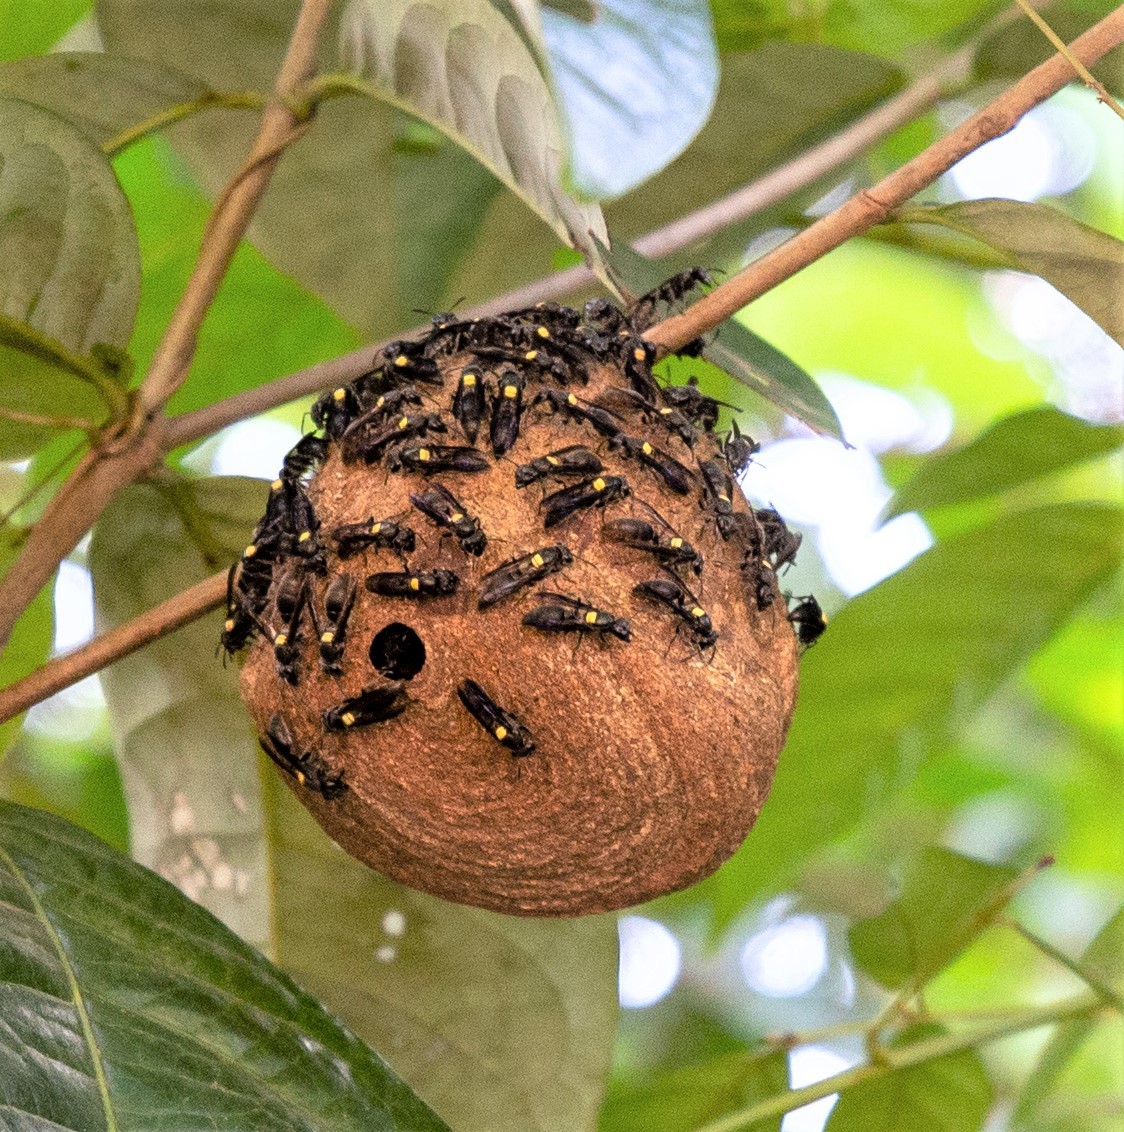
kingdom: Animalia
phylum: Arthropoda
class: Insecta
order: Hymenoptera
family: Eumenidae
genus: Polybia
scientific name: Polybia jurinei
